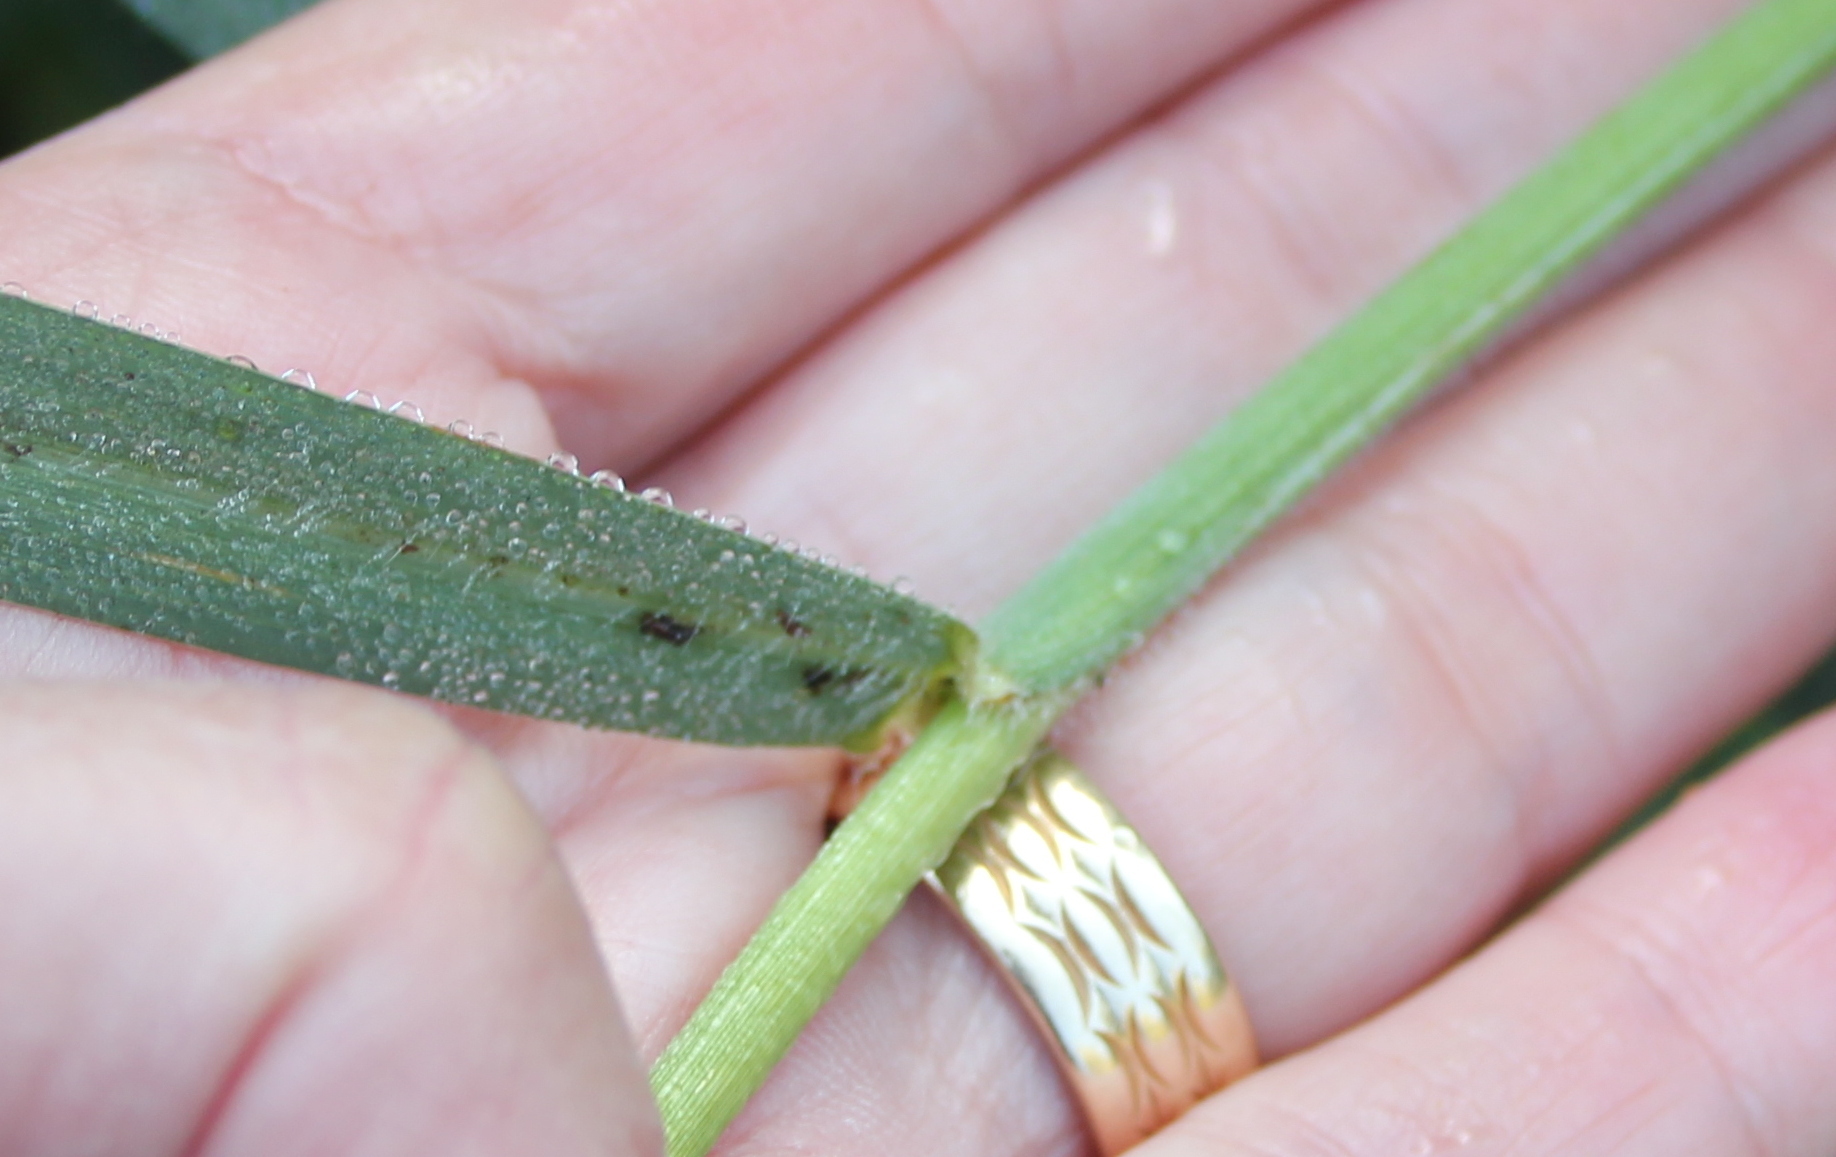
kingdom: Plantae
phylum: Tracheophyta
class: Liliopsida
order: Poales
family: Poaceae
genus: Paspalum
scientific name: Paspalum dilatatum
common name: Dallisgrass
